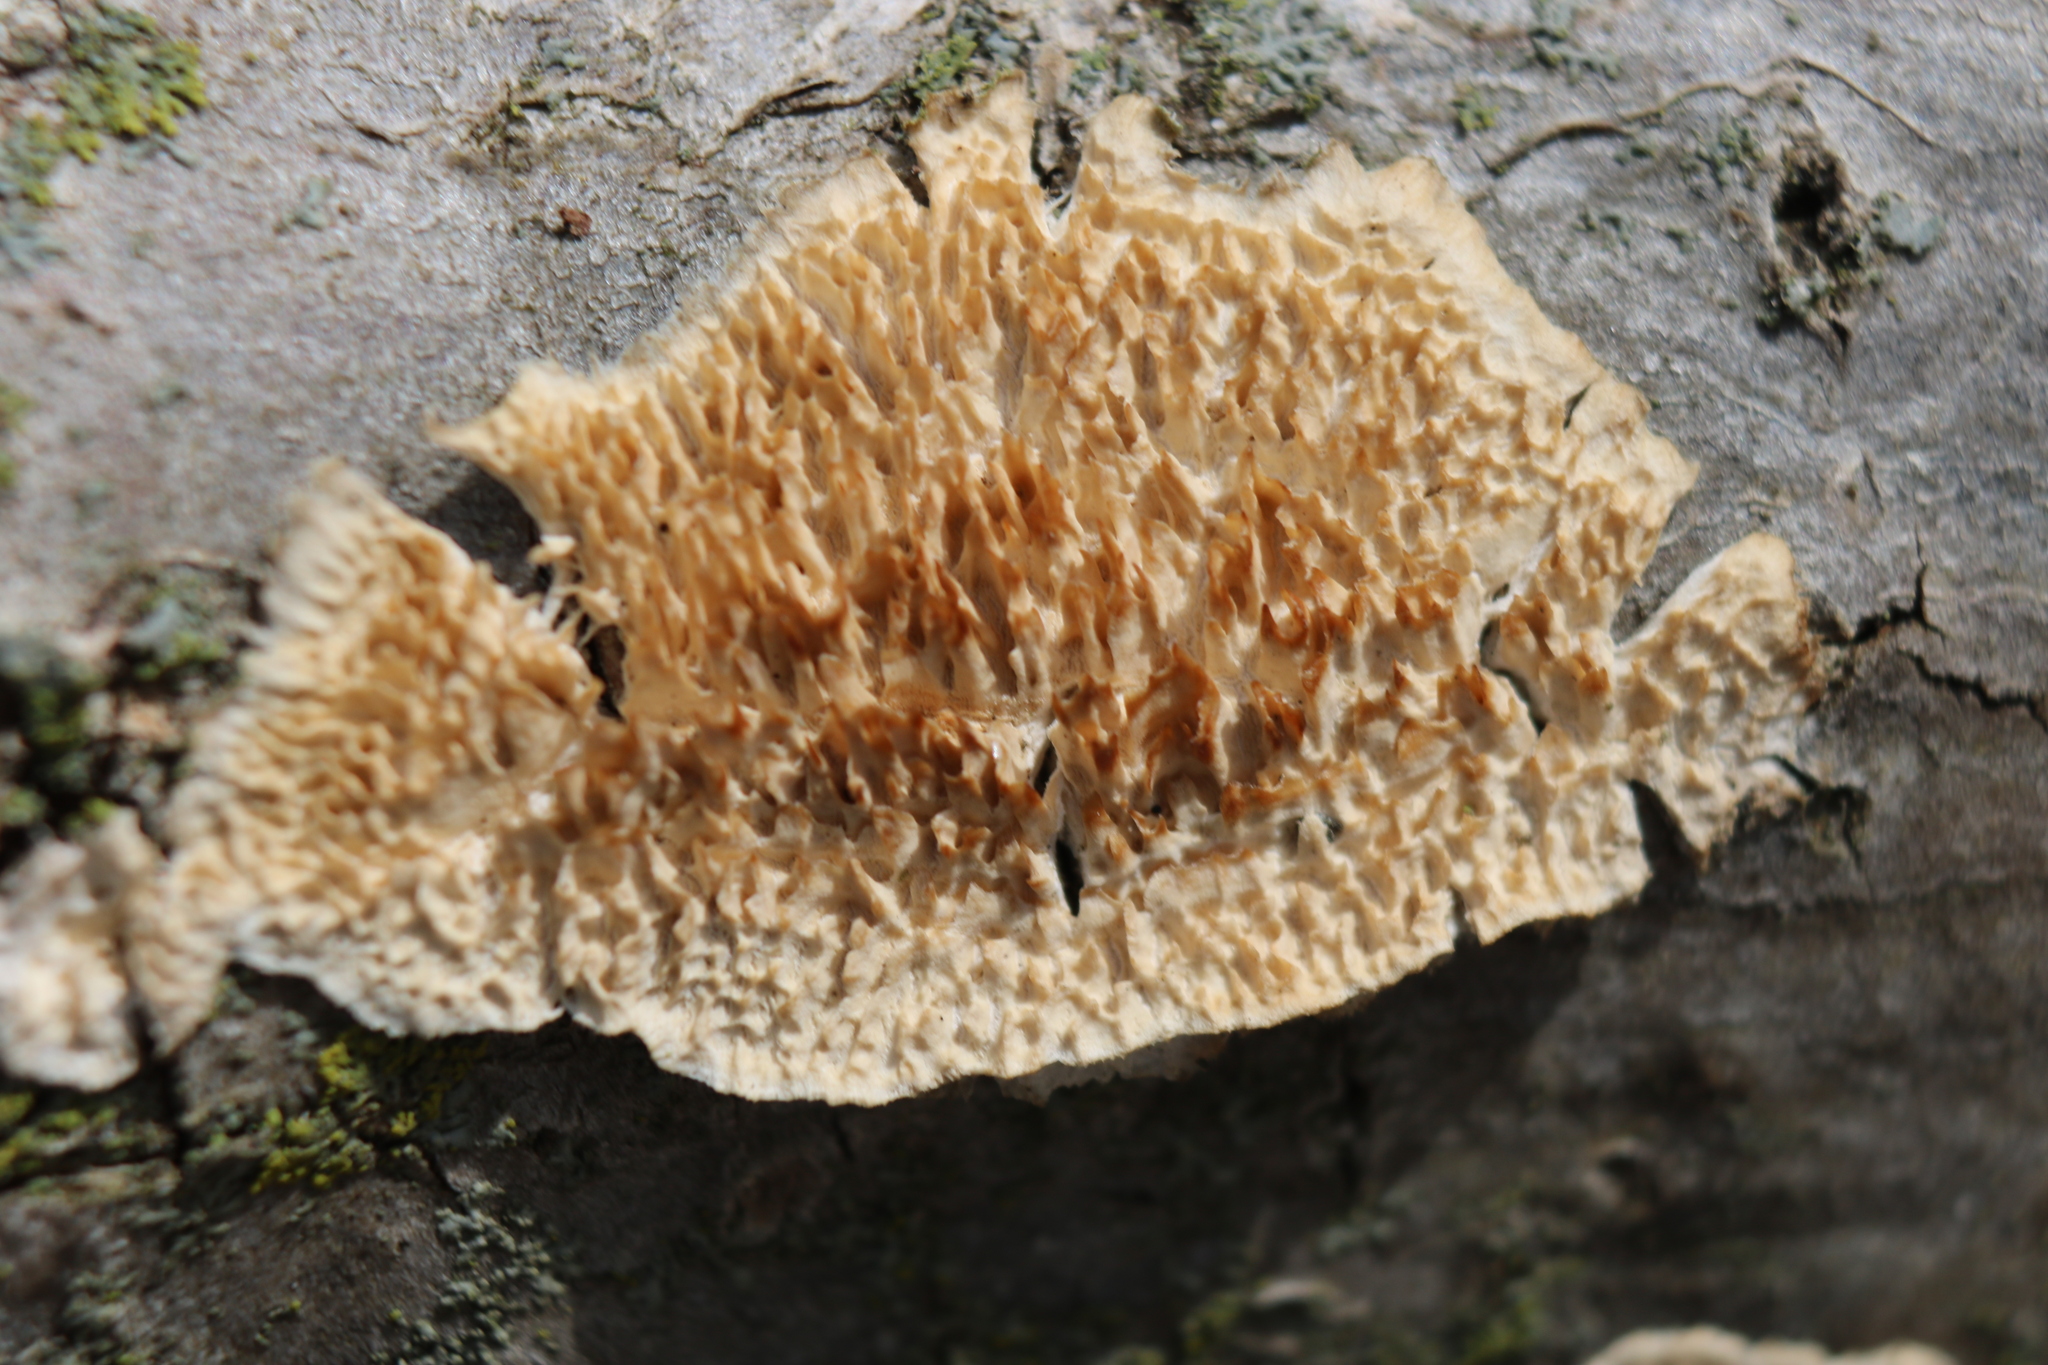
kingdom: Fungi
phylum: Basidiomycota
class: Agaricomycetes
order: Polyporales
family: Irpicaceae
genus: Irpex
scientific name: Irpex lacteus
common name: Milk-white toothed polypore
